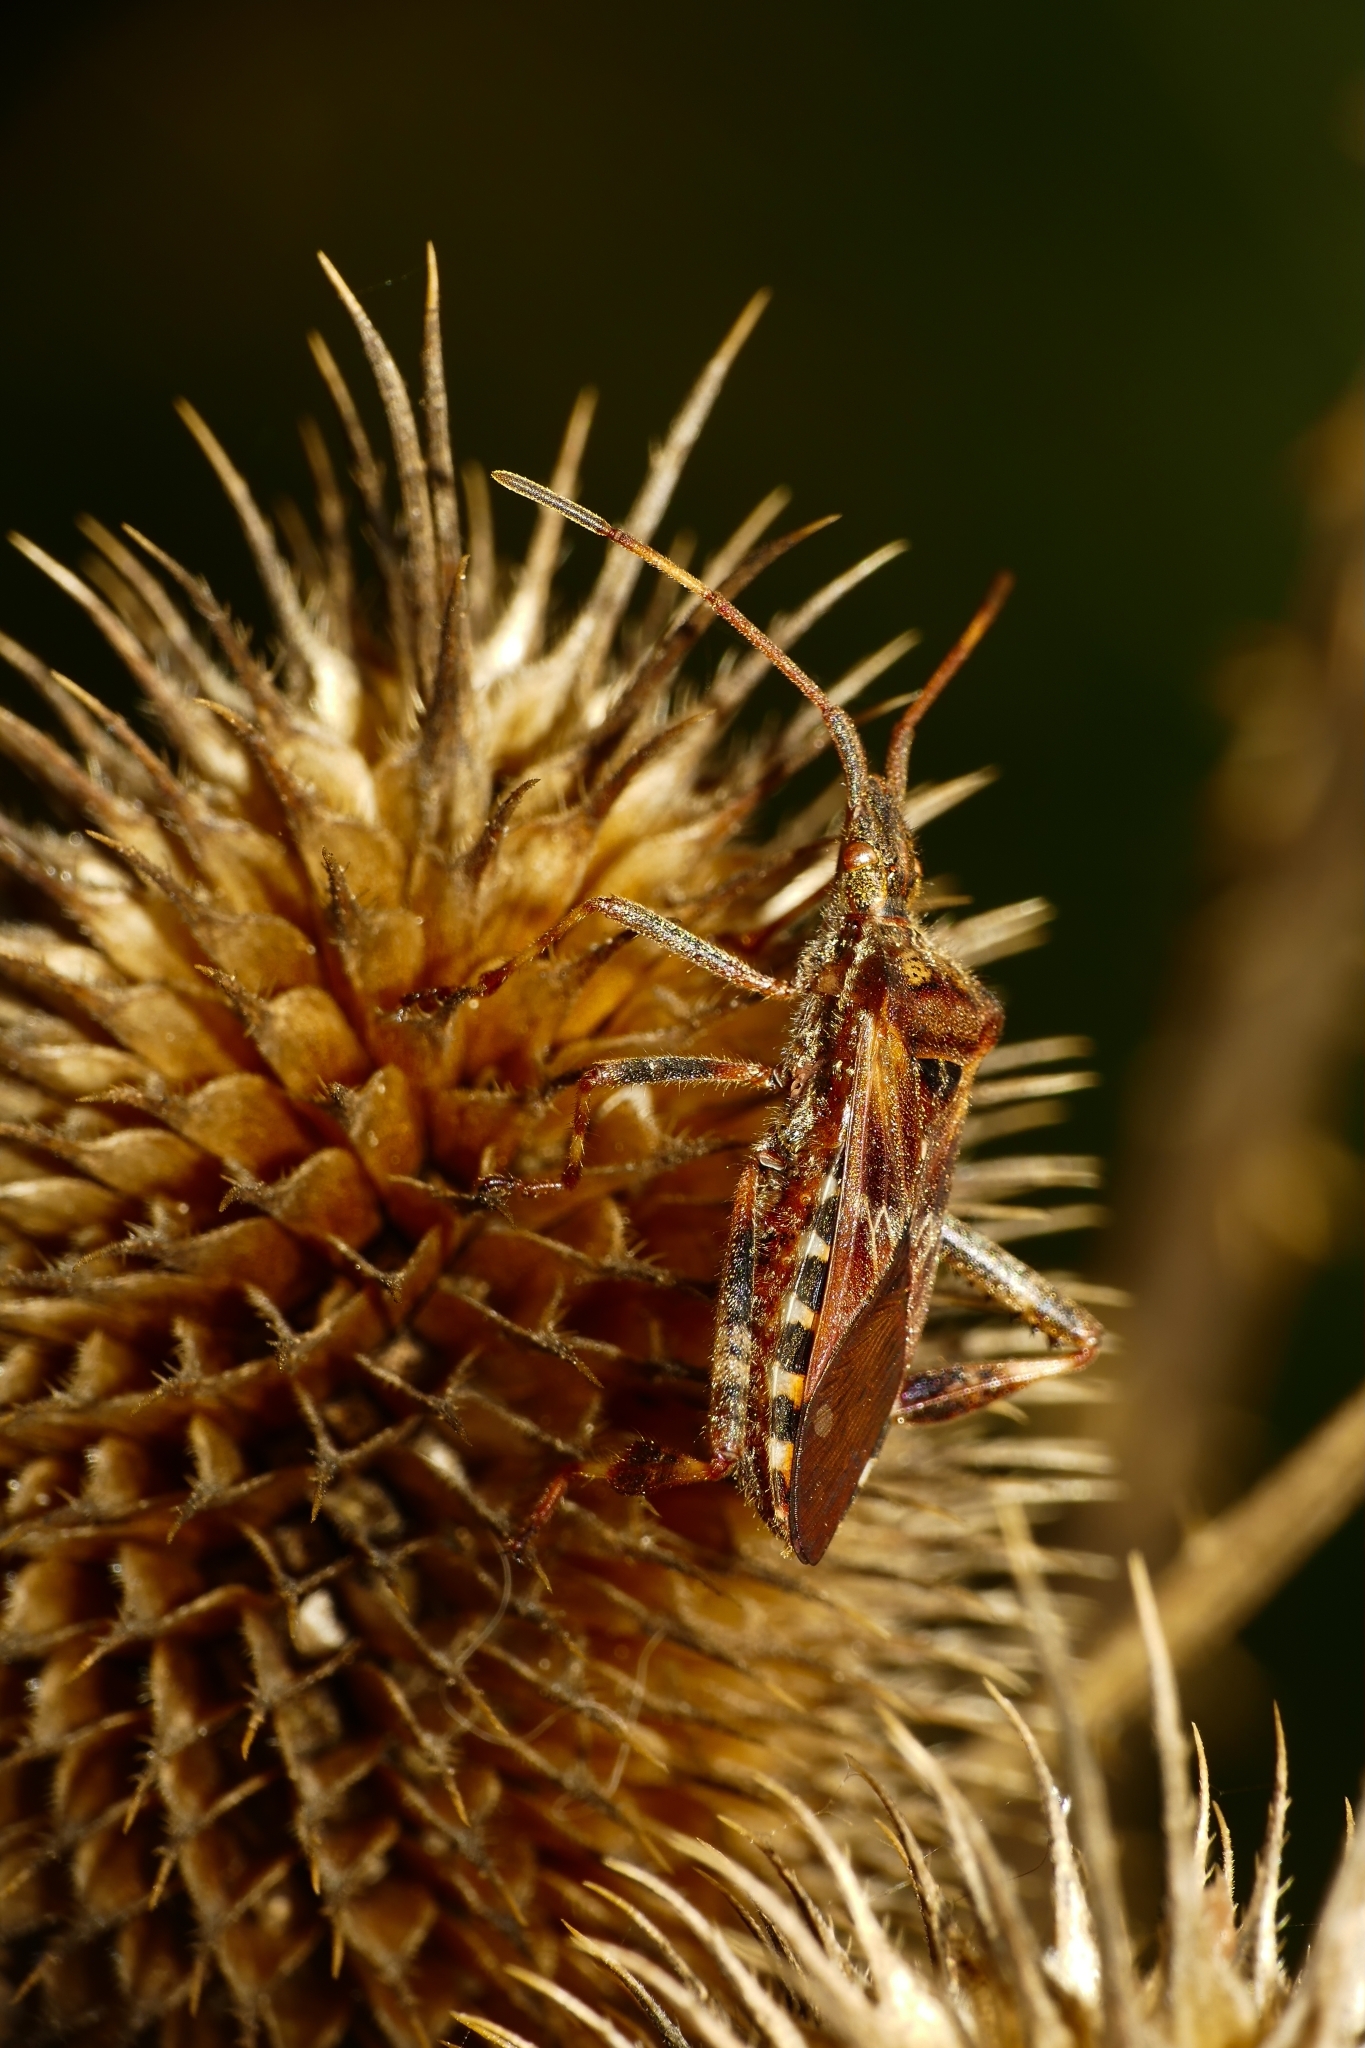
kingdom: Animalia
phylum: Arthropoda
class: Insecta
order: Hemiptera
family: Coreidae
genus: Leptoglossus
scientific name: Leptoglossus occidentalis
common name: Western conifer-seed bug
